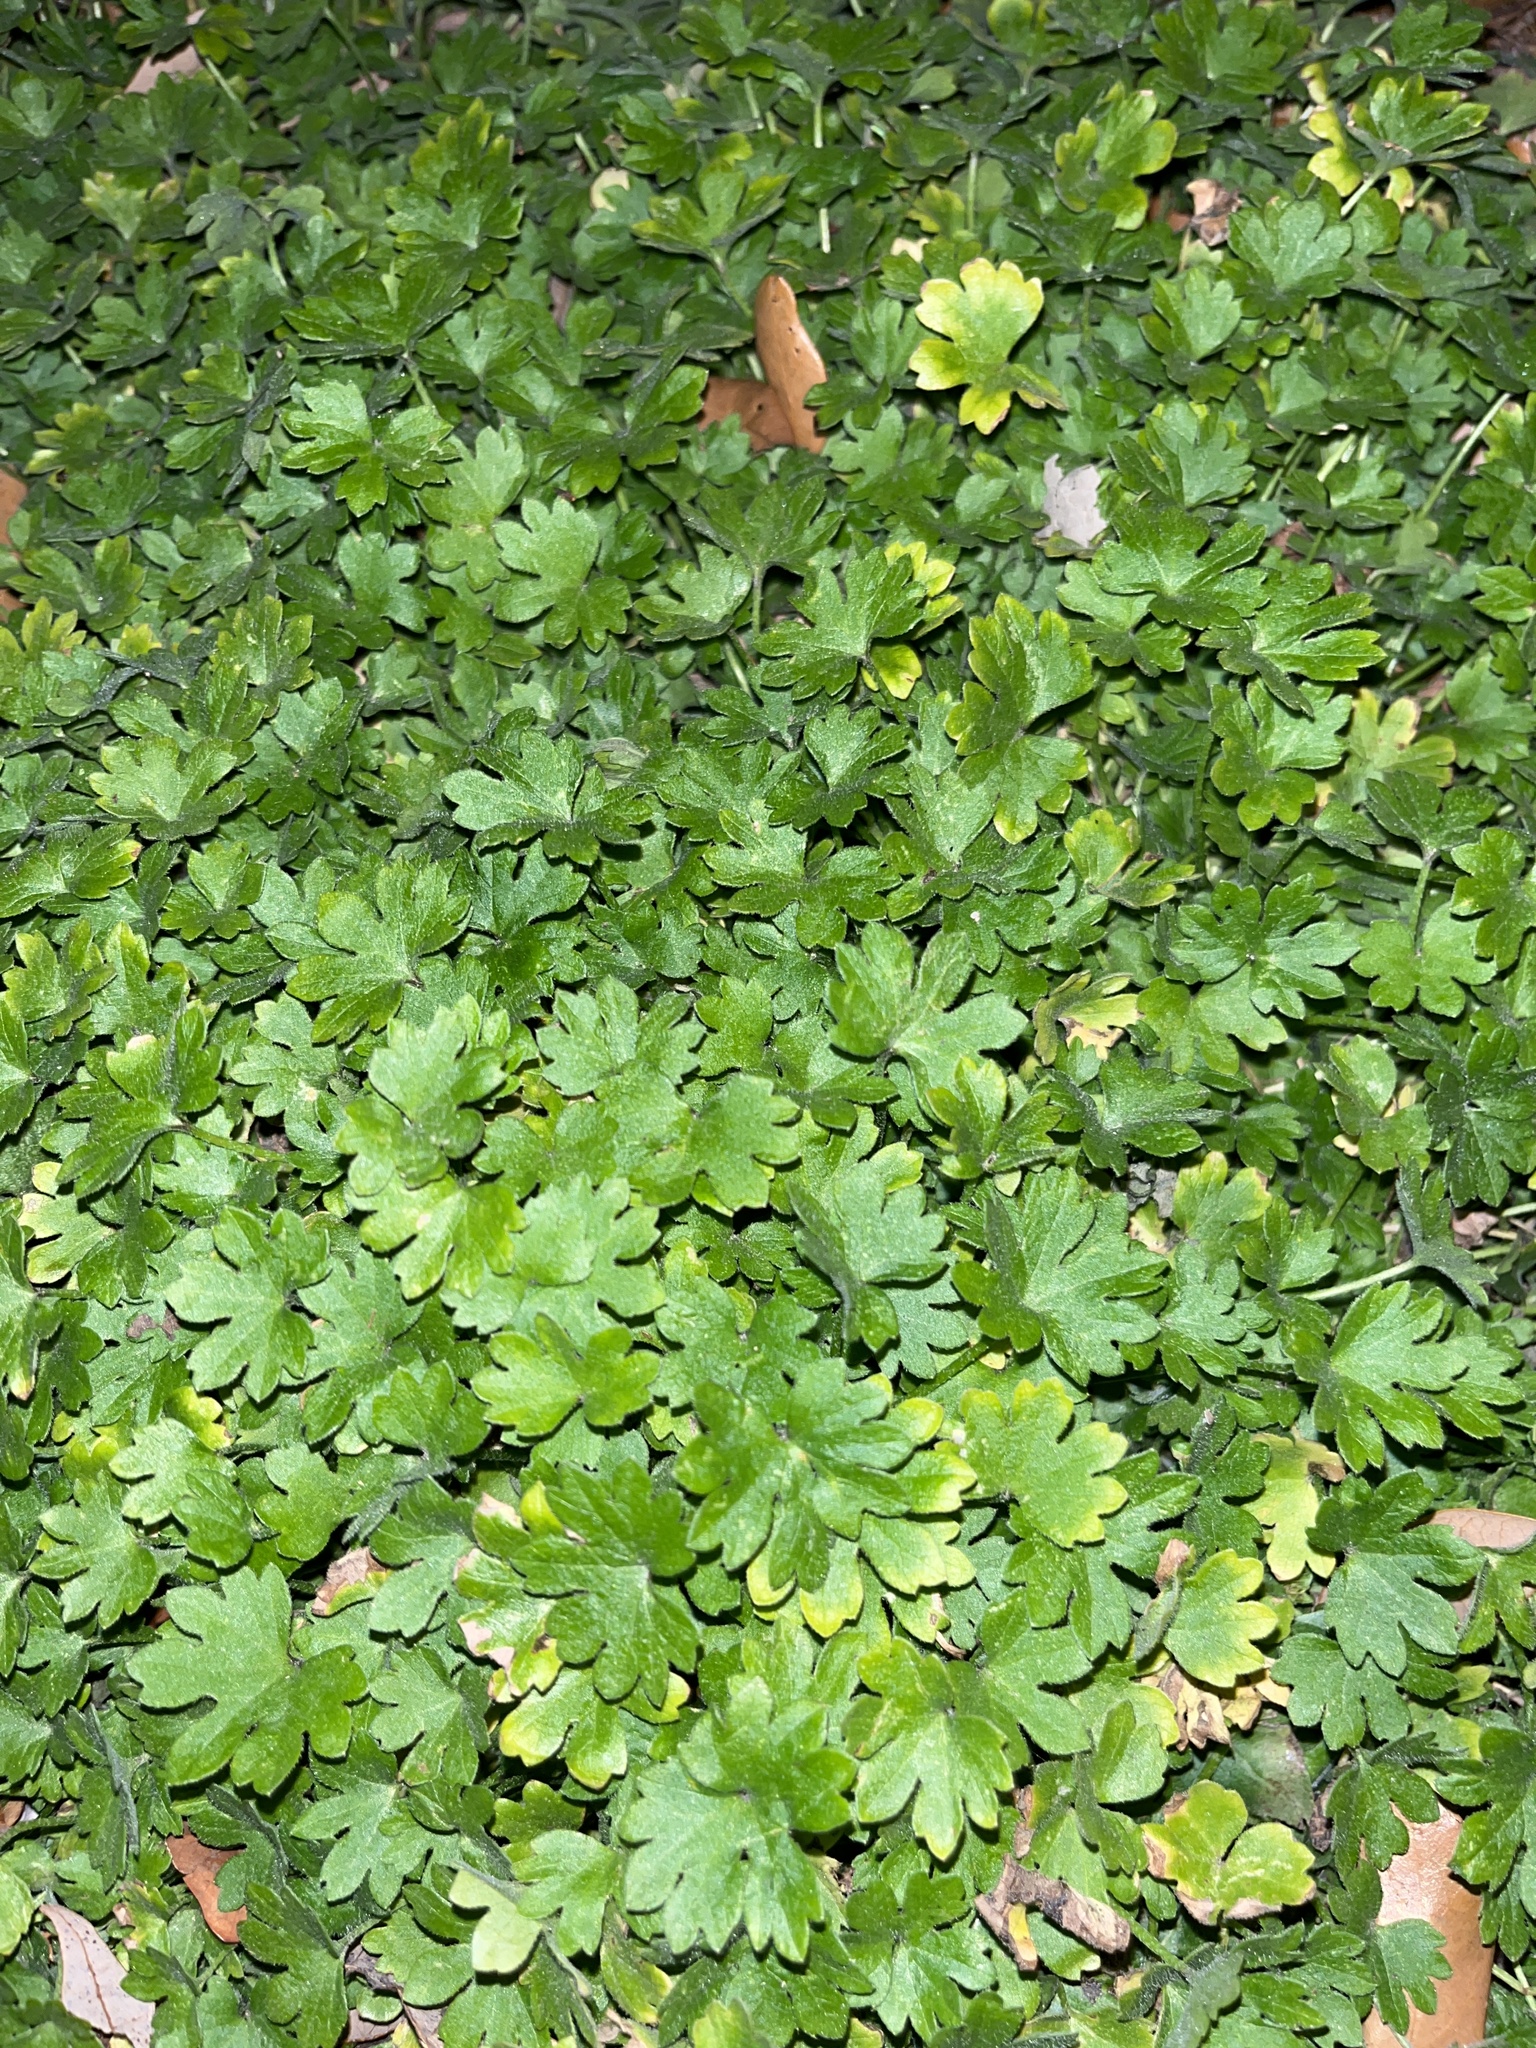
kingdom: Plantae
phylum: Tracheophyta
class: Magnoliopsida
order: Apiales
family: Apiaceae
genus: Bowlesia
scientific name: Bowlesia incana
